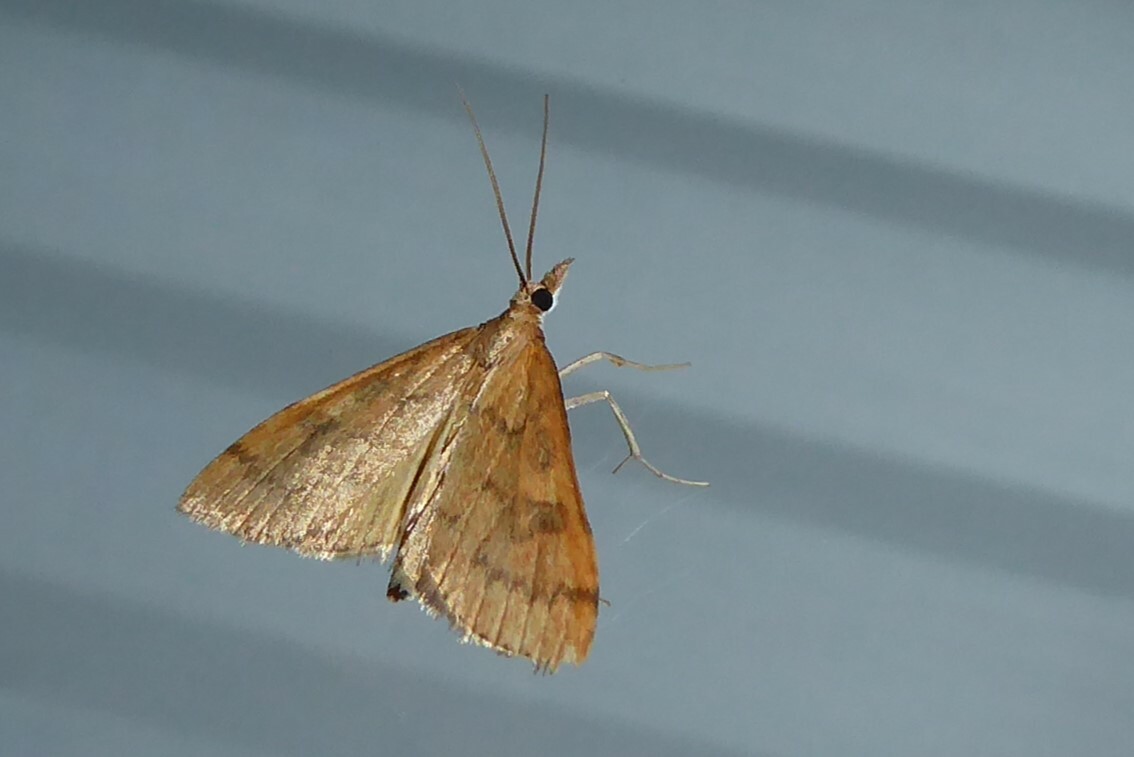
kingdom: Animalia
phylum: Arthropoda
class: Insecta
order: Lepidoptera
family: Crambidae
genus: Udea
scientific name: Udea Mnesictena flavidalis
